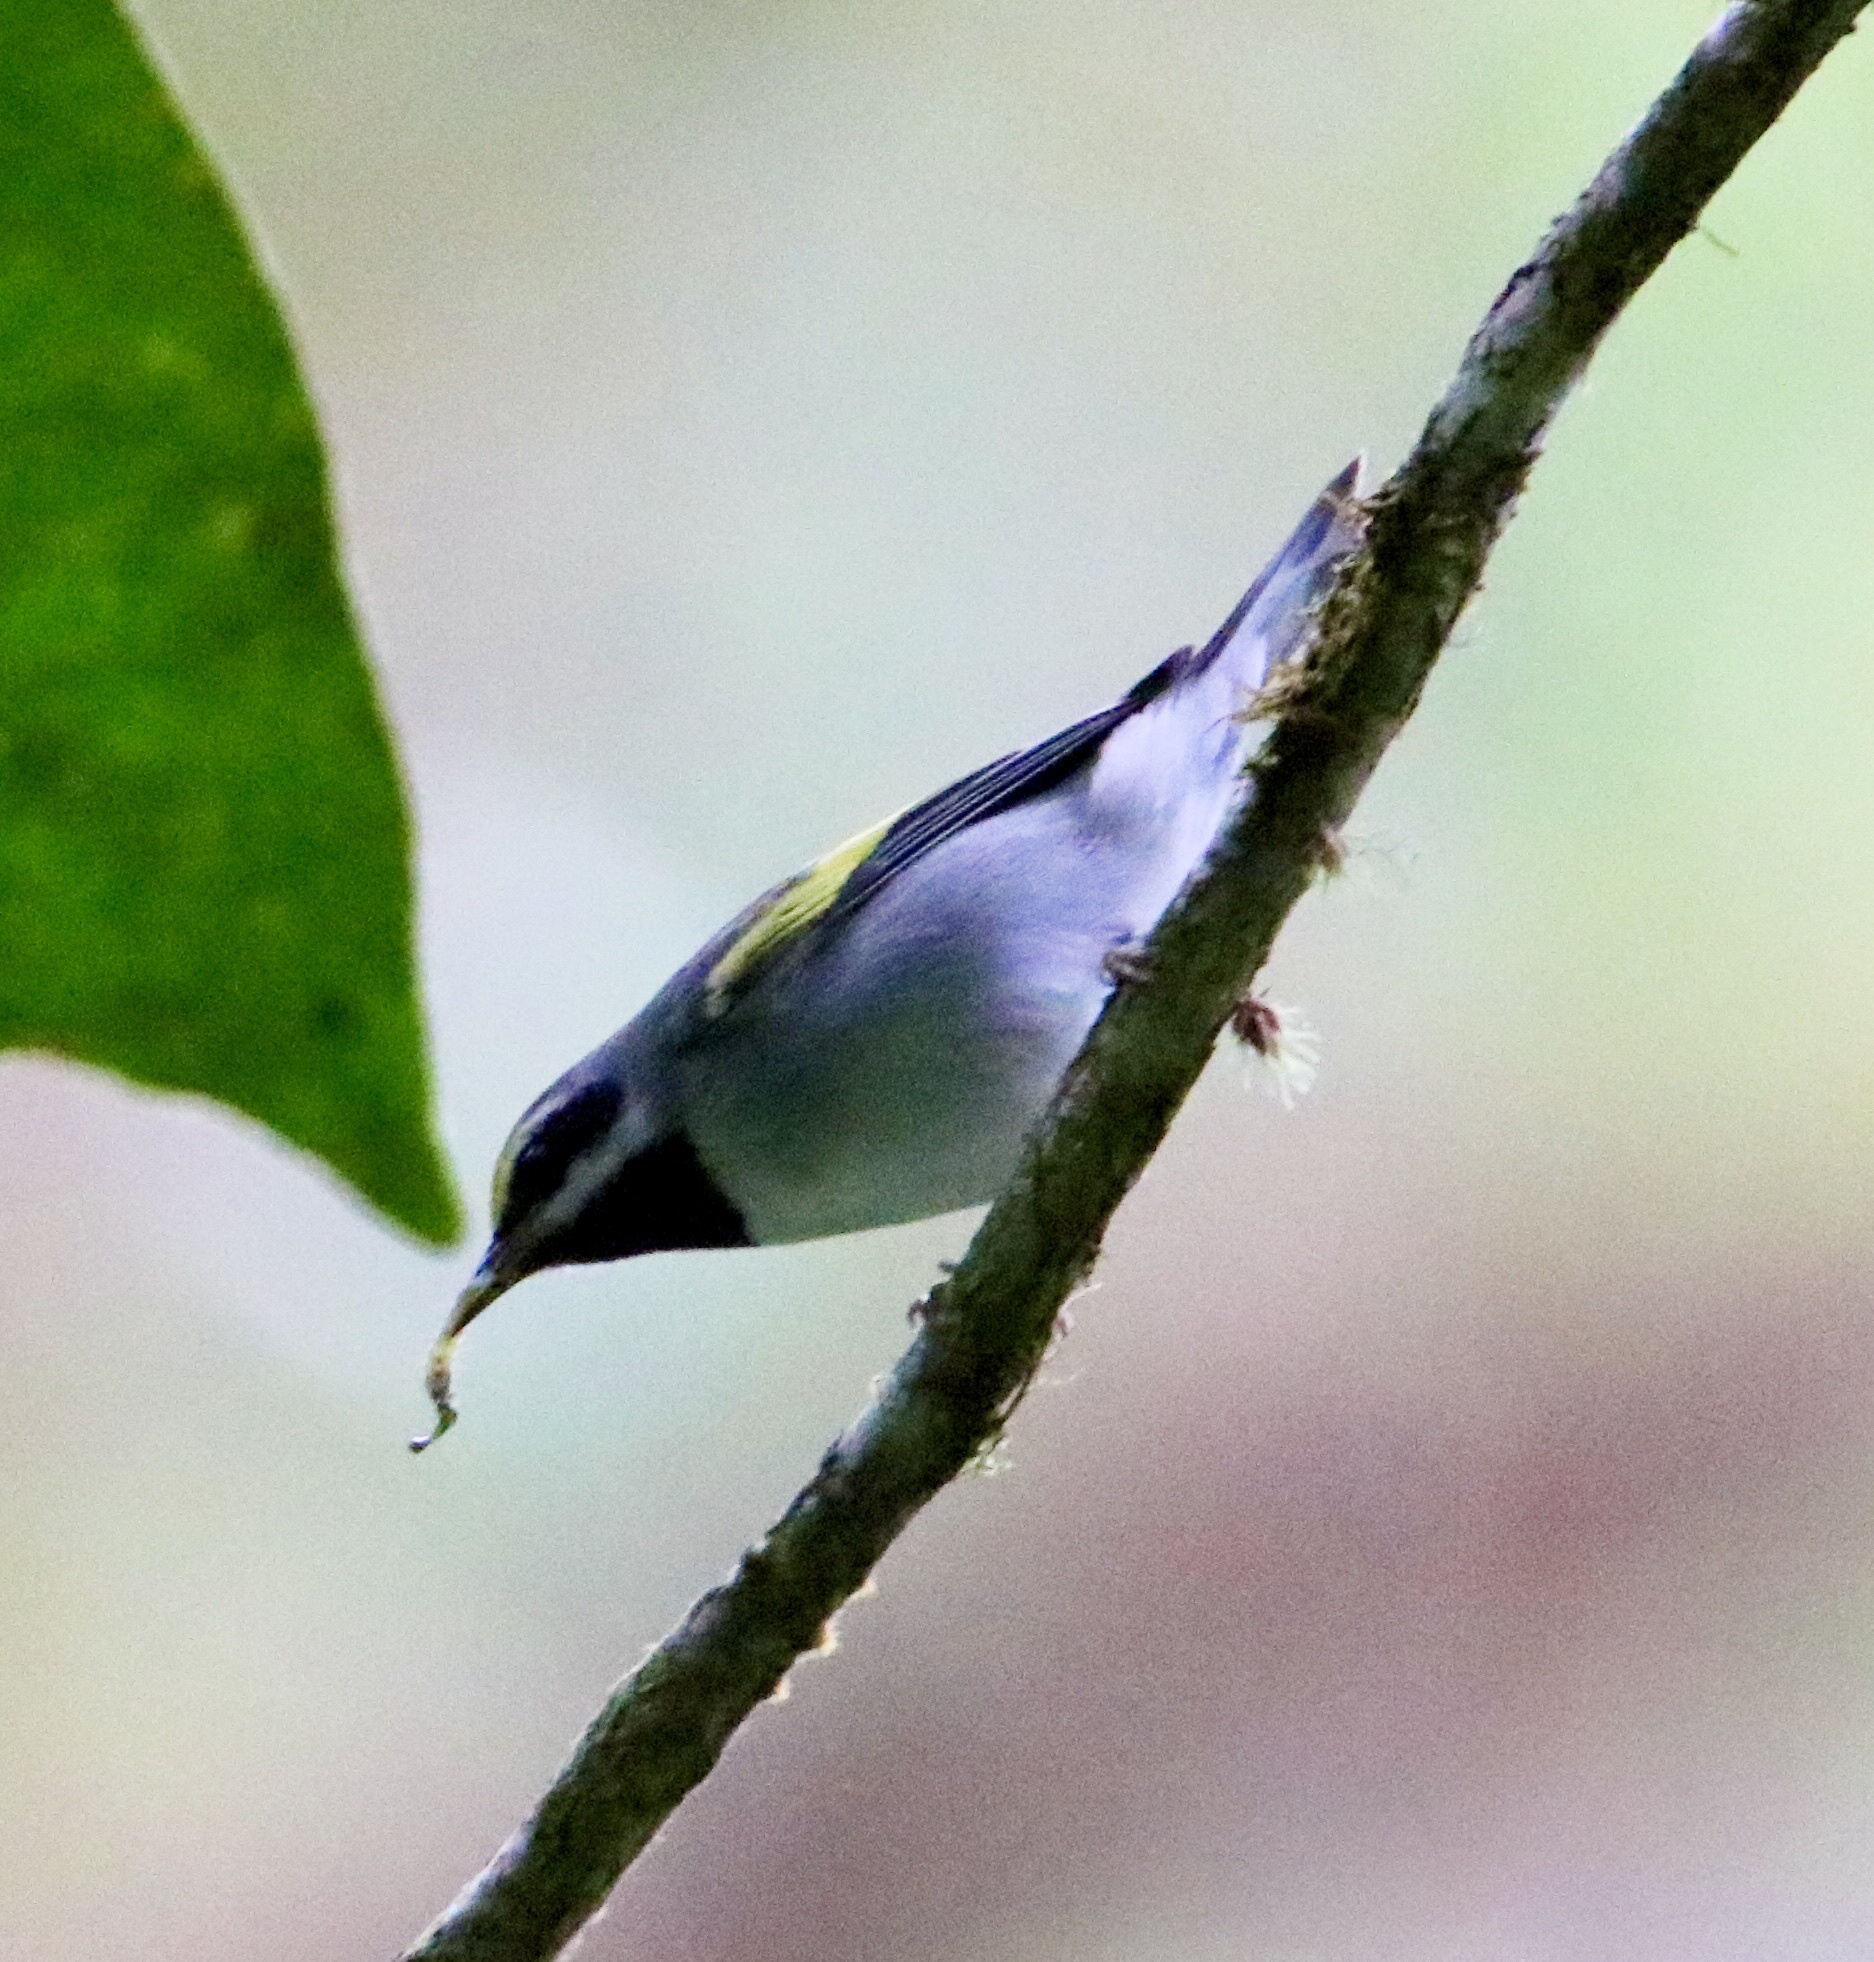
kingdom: Animalia
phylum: Chordata
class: Aves
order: Passeriformes
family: Parulidae
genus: Vermivora
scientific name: Vermivora chrysoptera
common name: Golden-winged warbler
